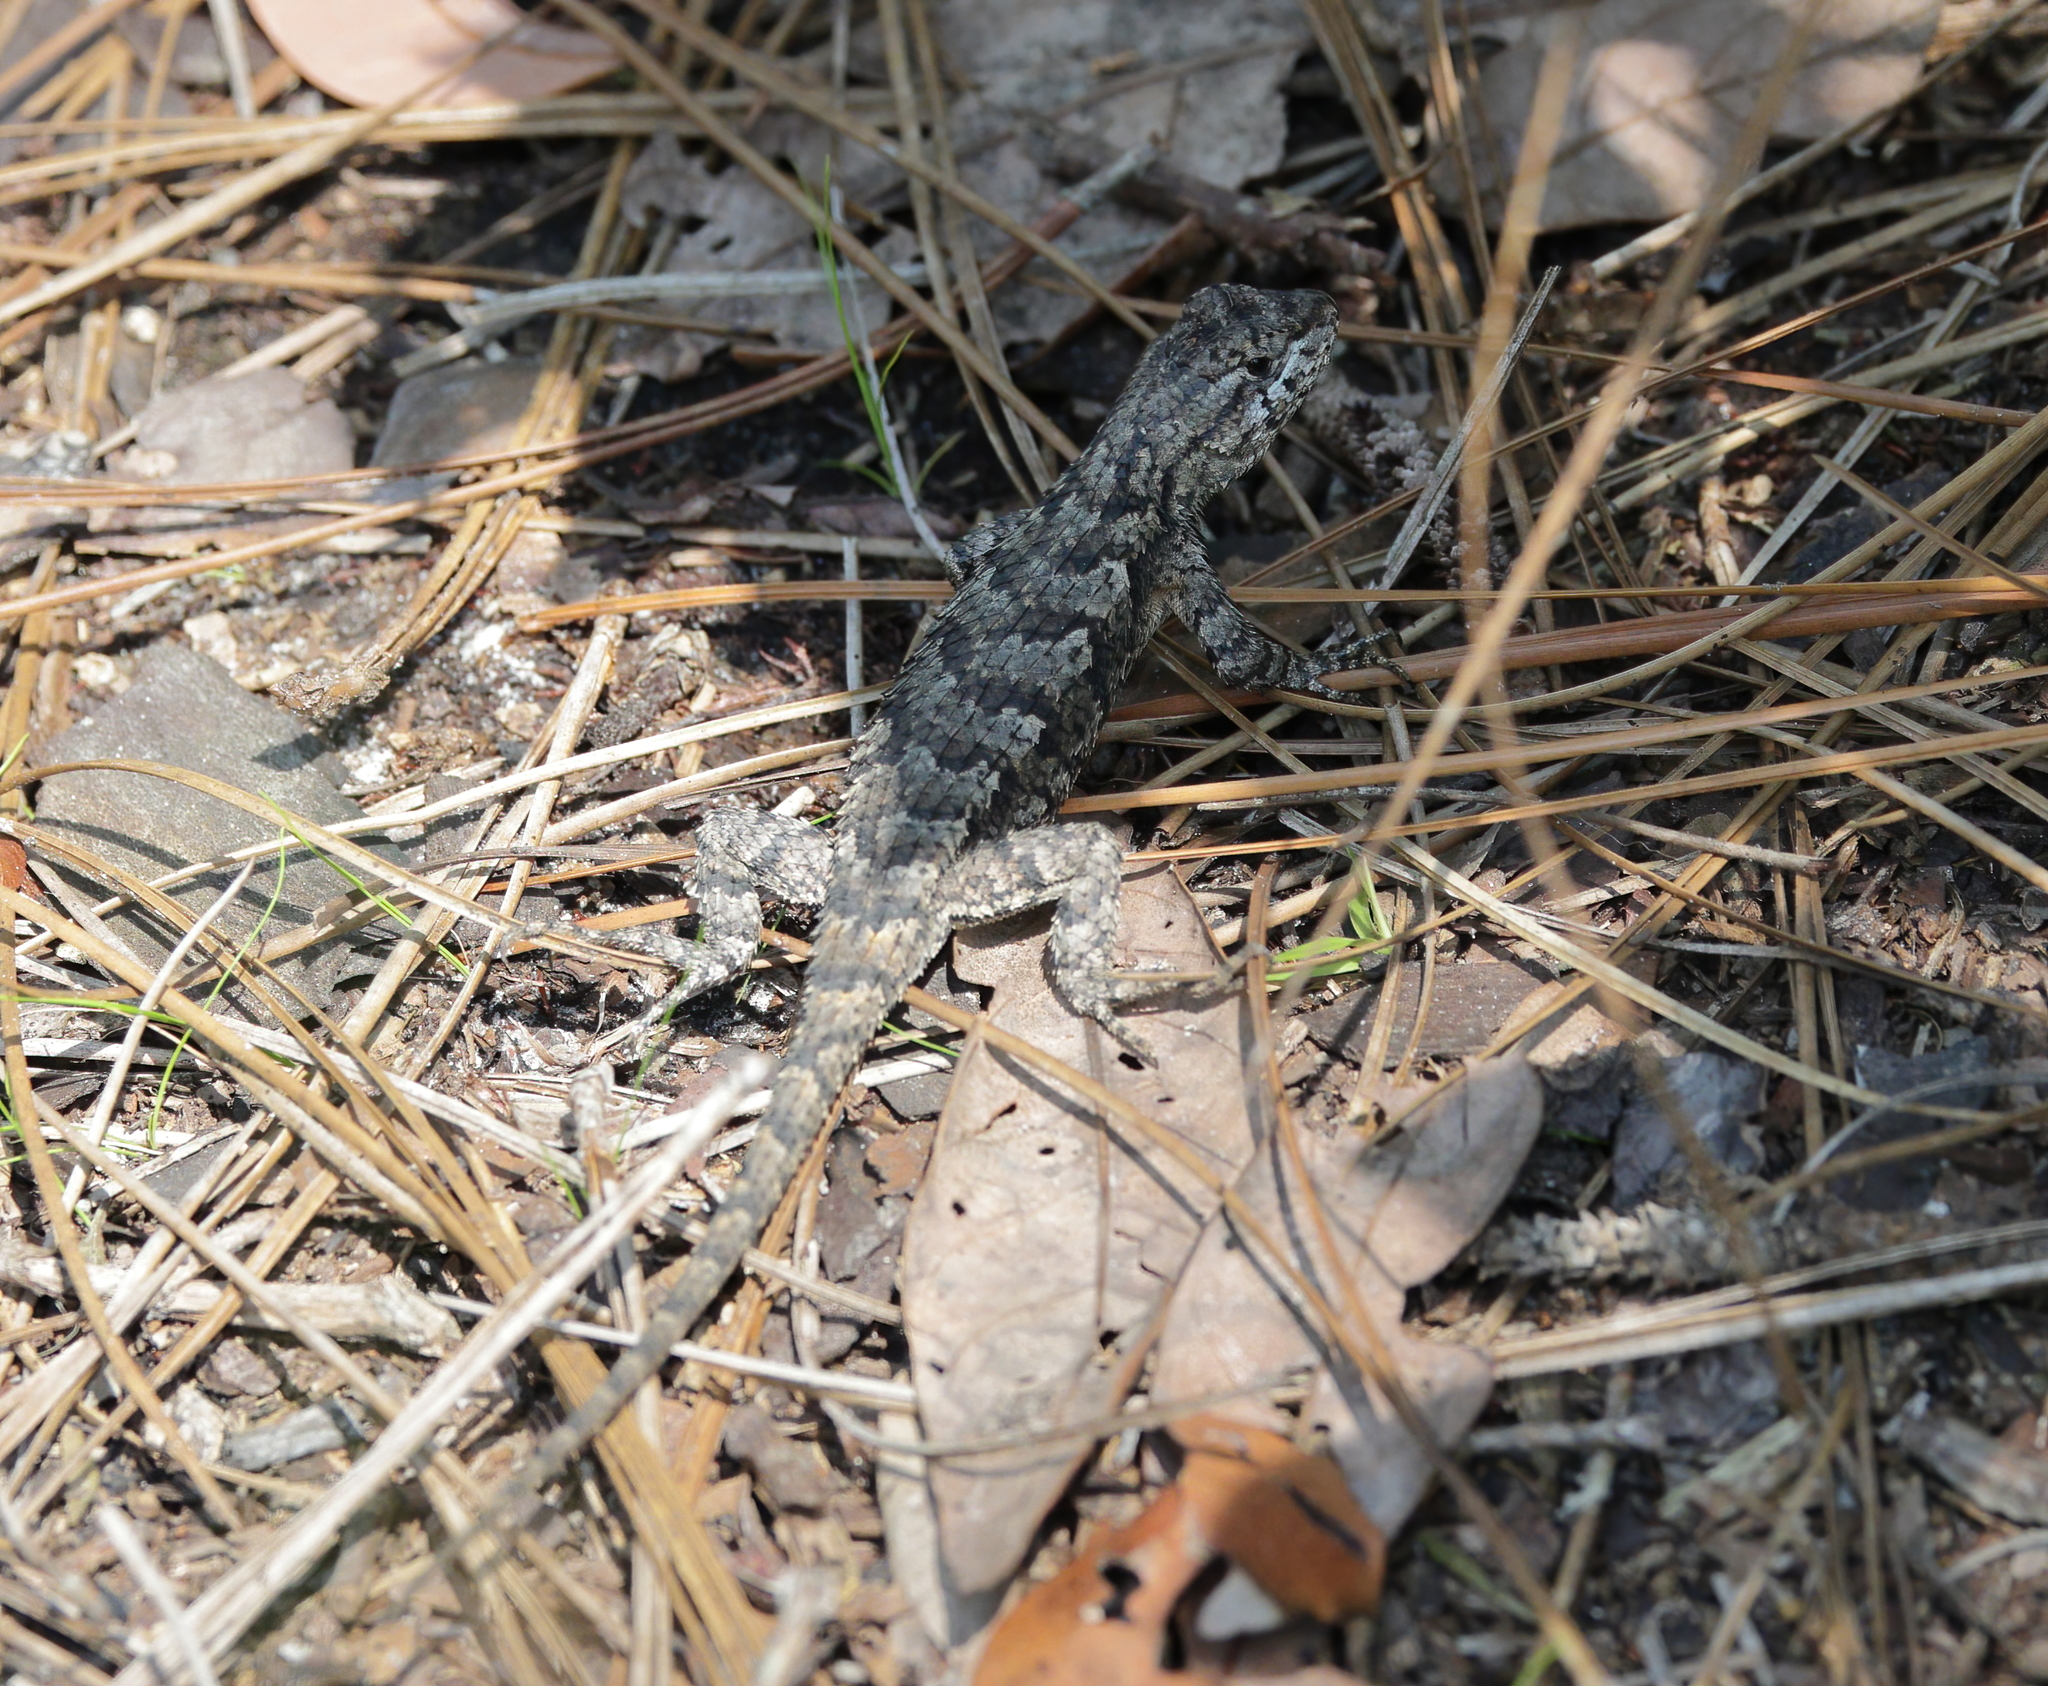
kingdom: Animalia
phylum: Chordata
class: Squamata
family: Phrynosomatidae
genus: Sceloporus
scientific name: Sceloporus undulatus
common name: Eastern fence lizard
